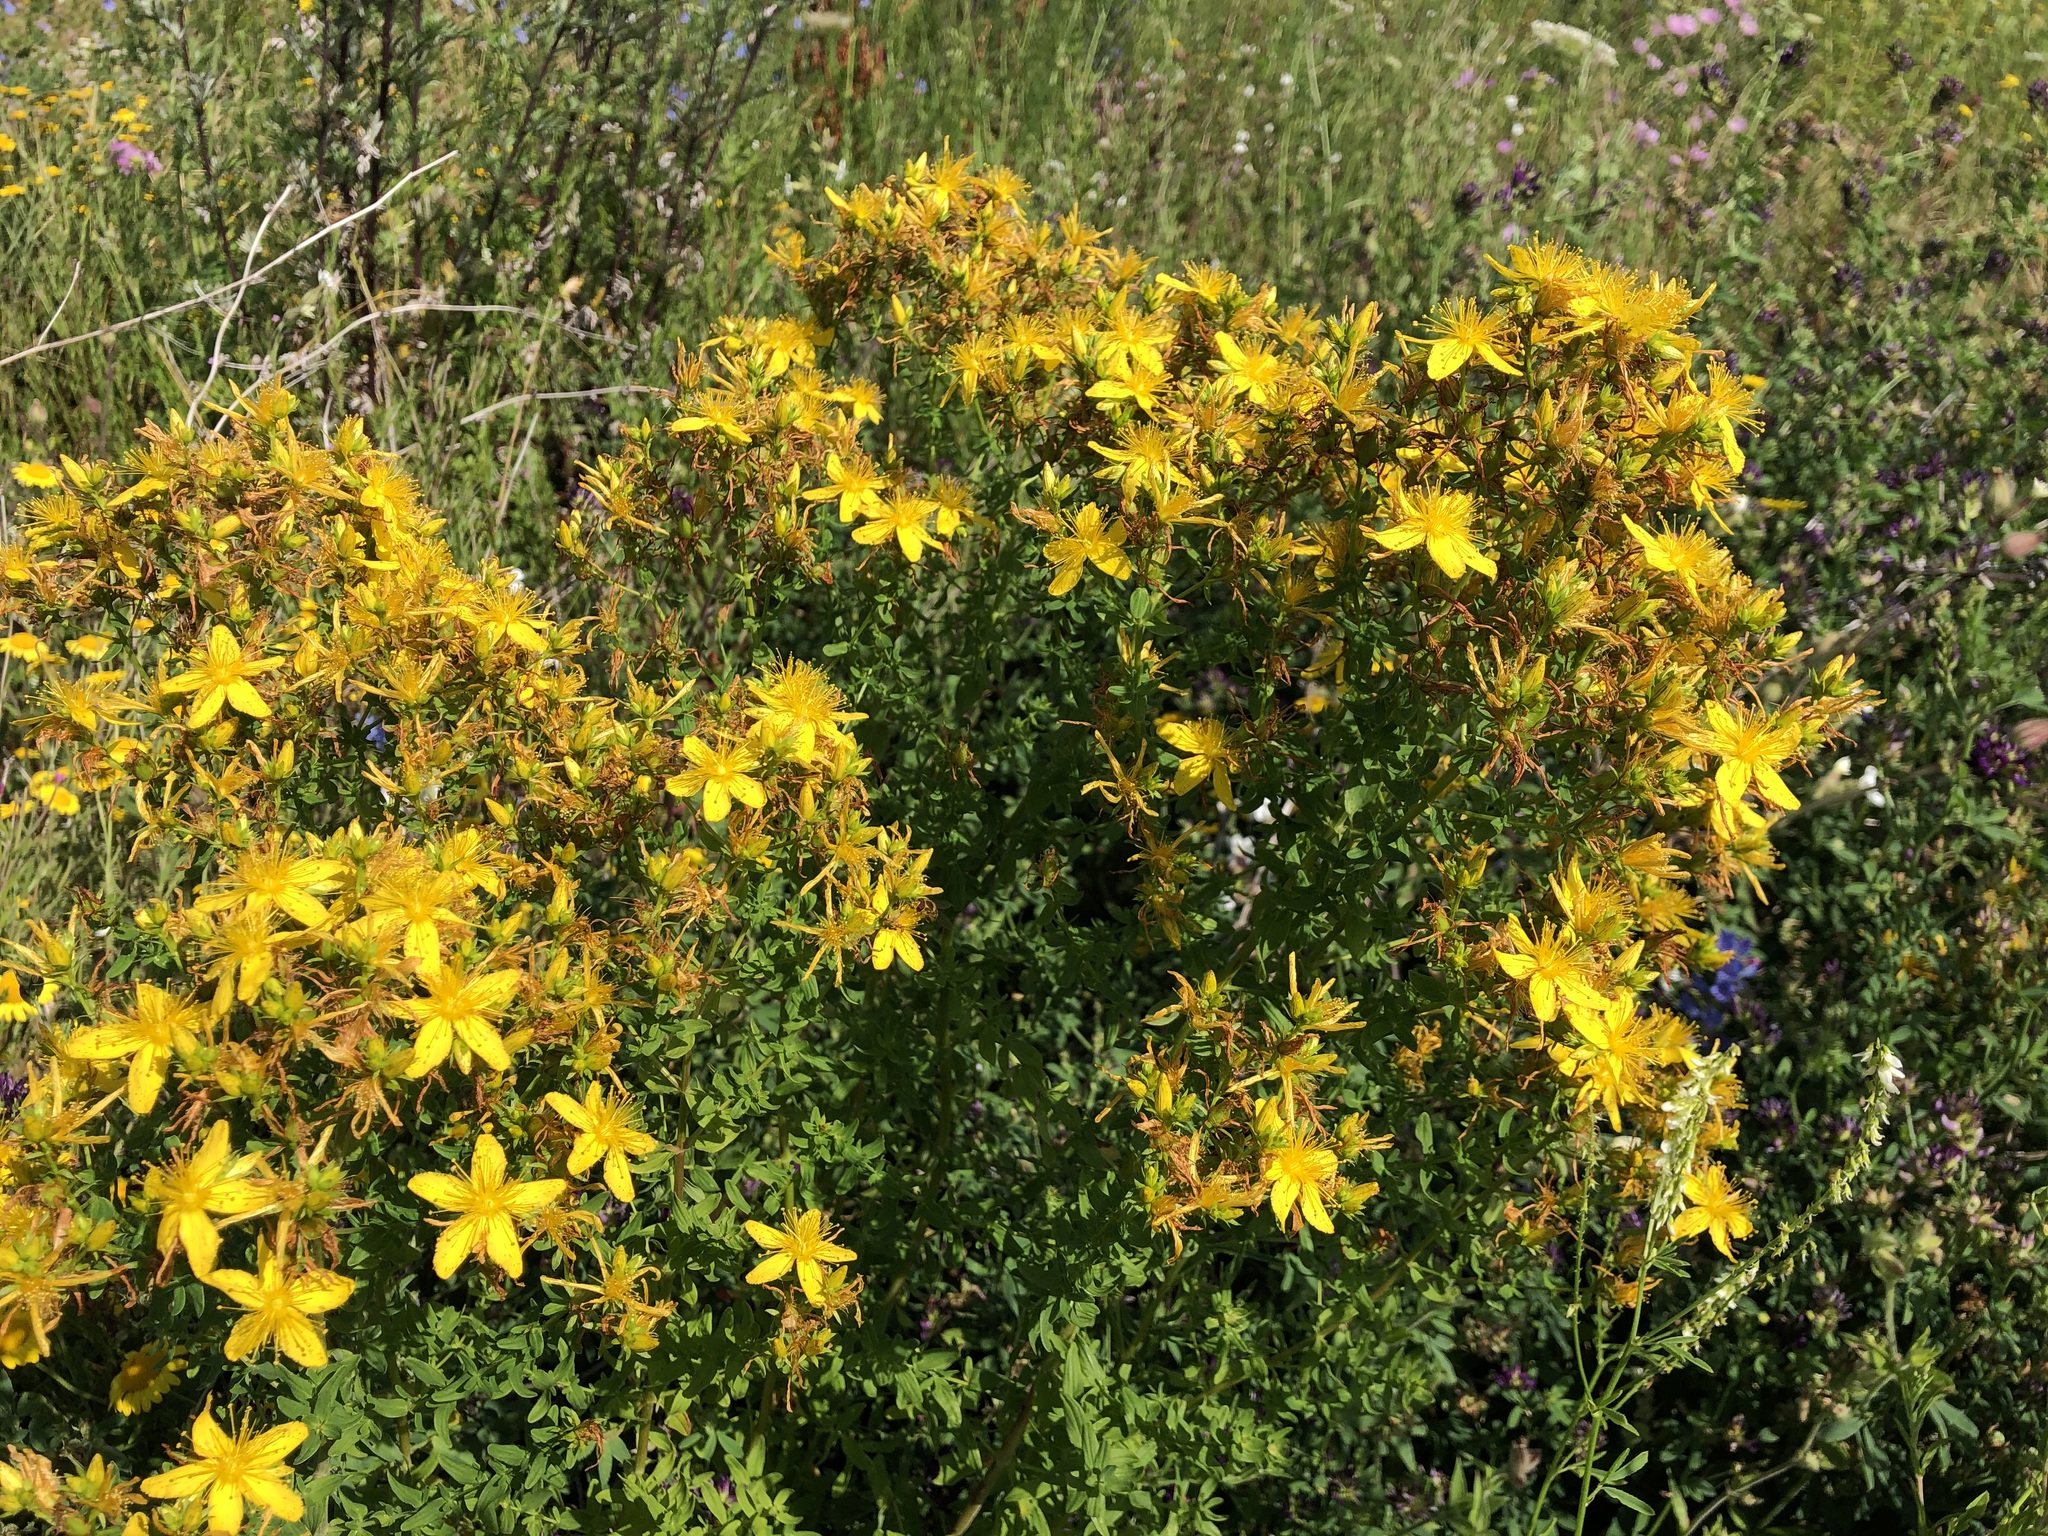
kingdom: Plantae
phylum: Tracheophyta
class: Magnoliopsida
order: Malpighiales
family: Hypericaceae
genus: Hypericum
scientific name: Hypericum perforatum
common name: Common st. johnswort
